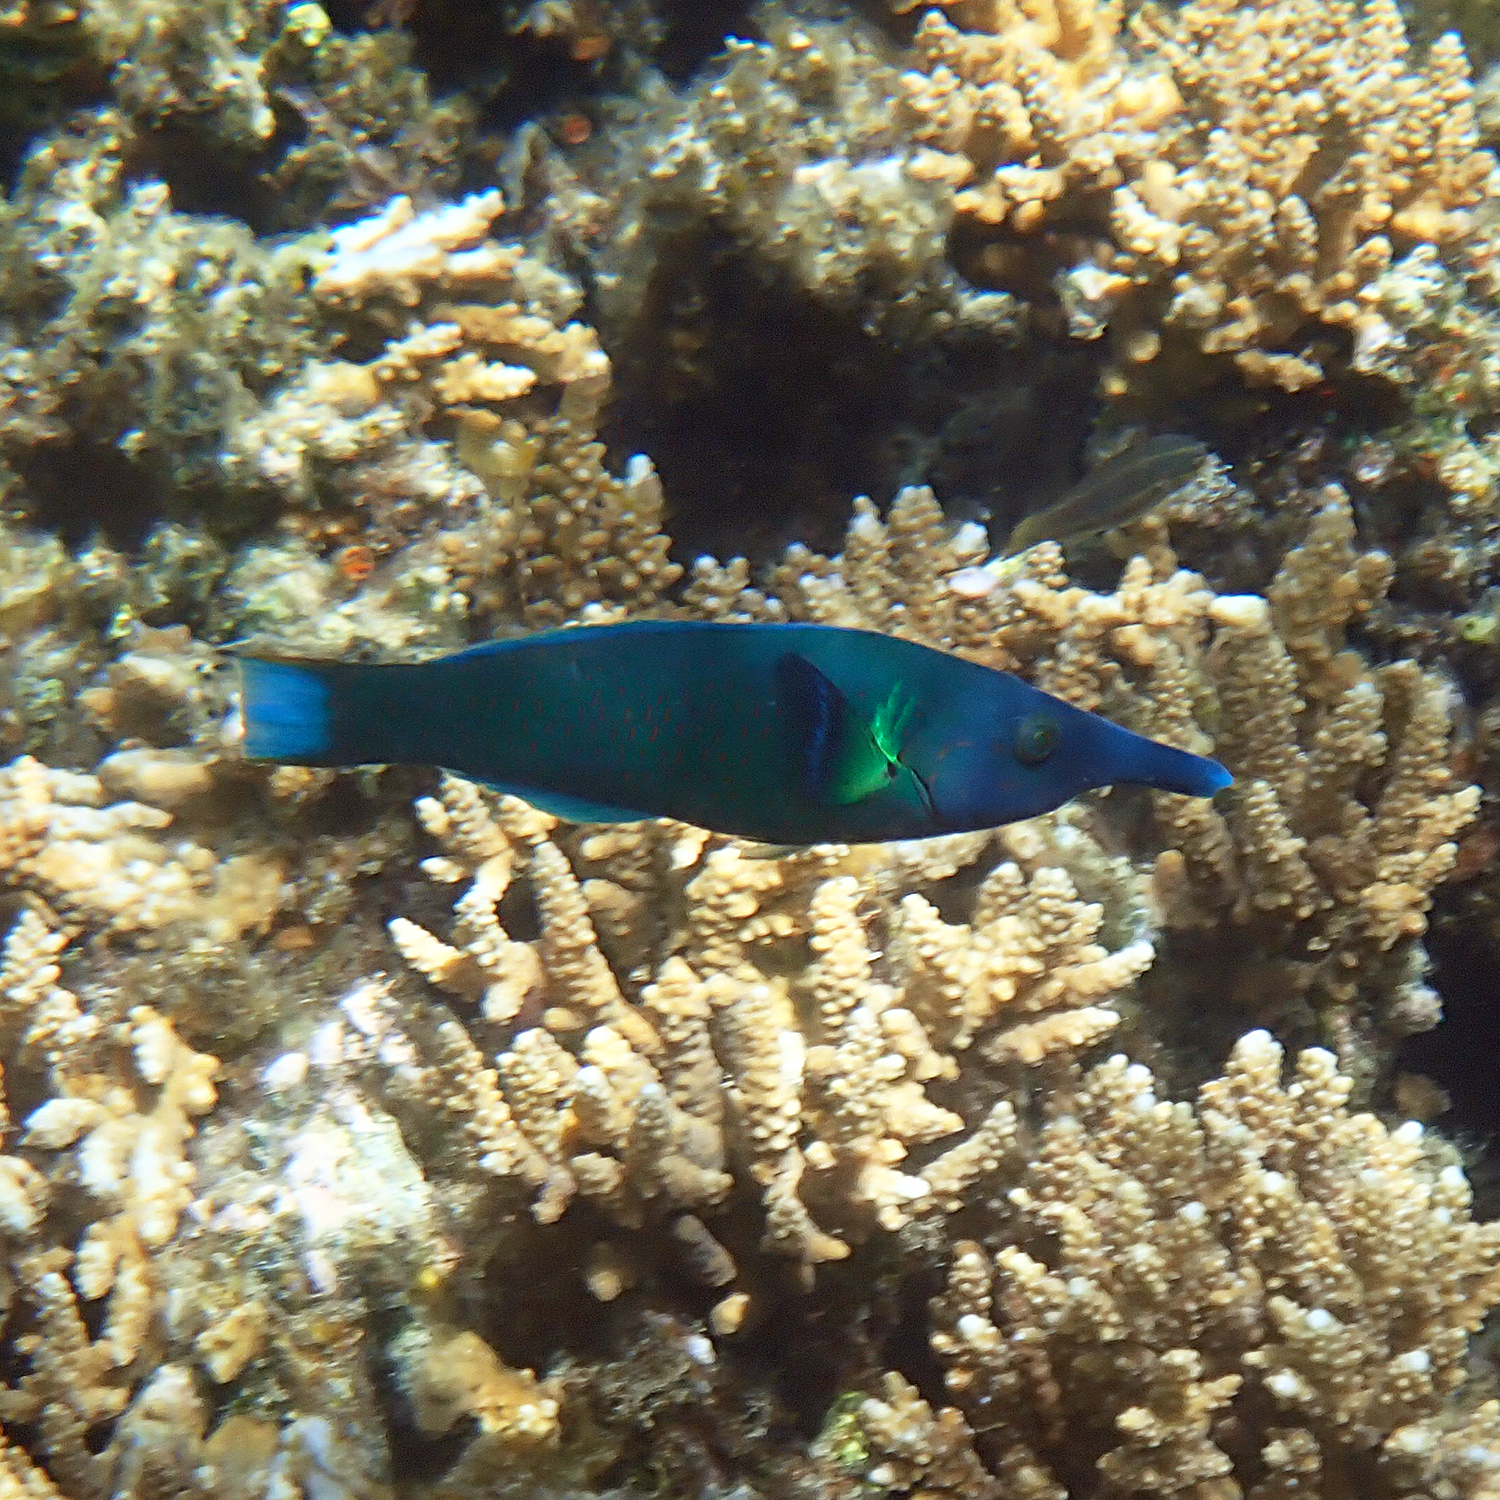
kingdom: Animalia
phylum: Chordata
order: Perciformes
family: Labridae
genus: Gomphosus
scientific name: Gomphosus varius
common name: Bird wrasse
